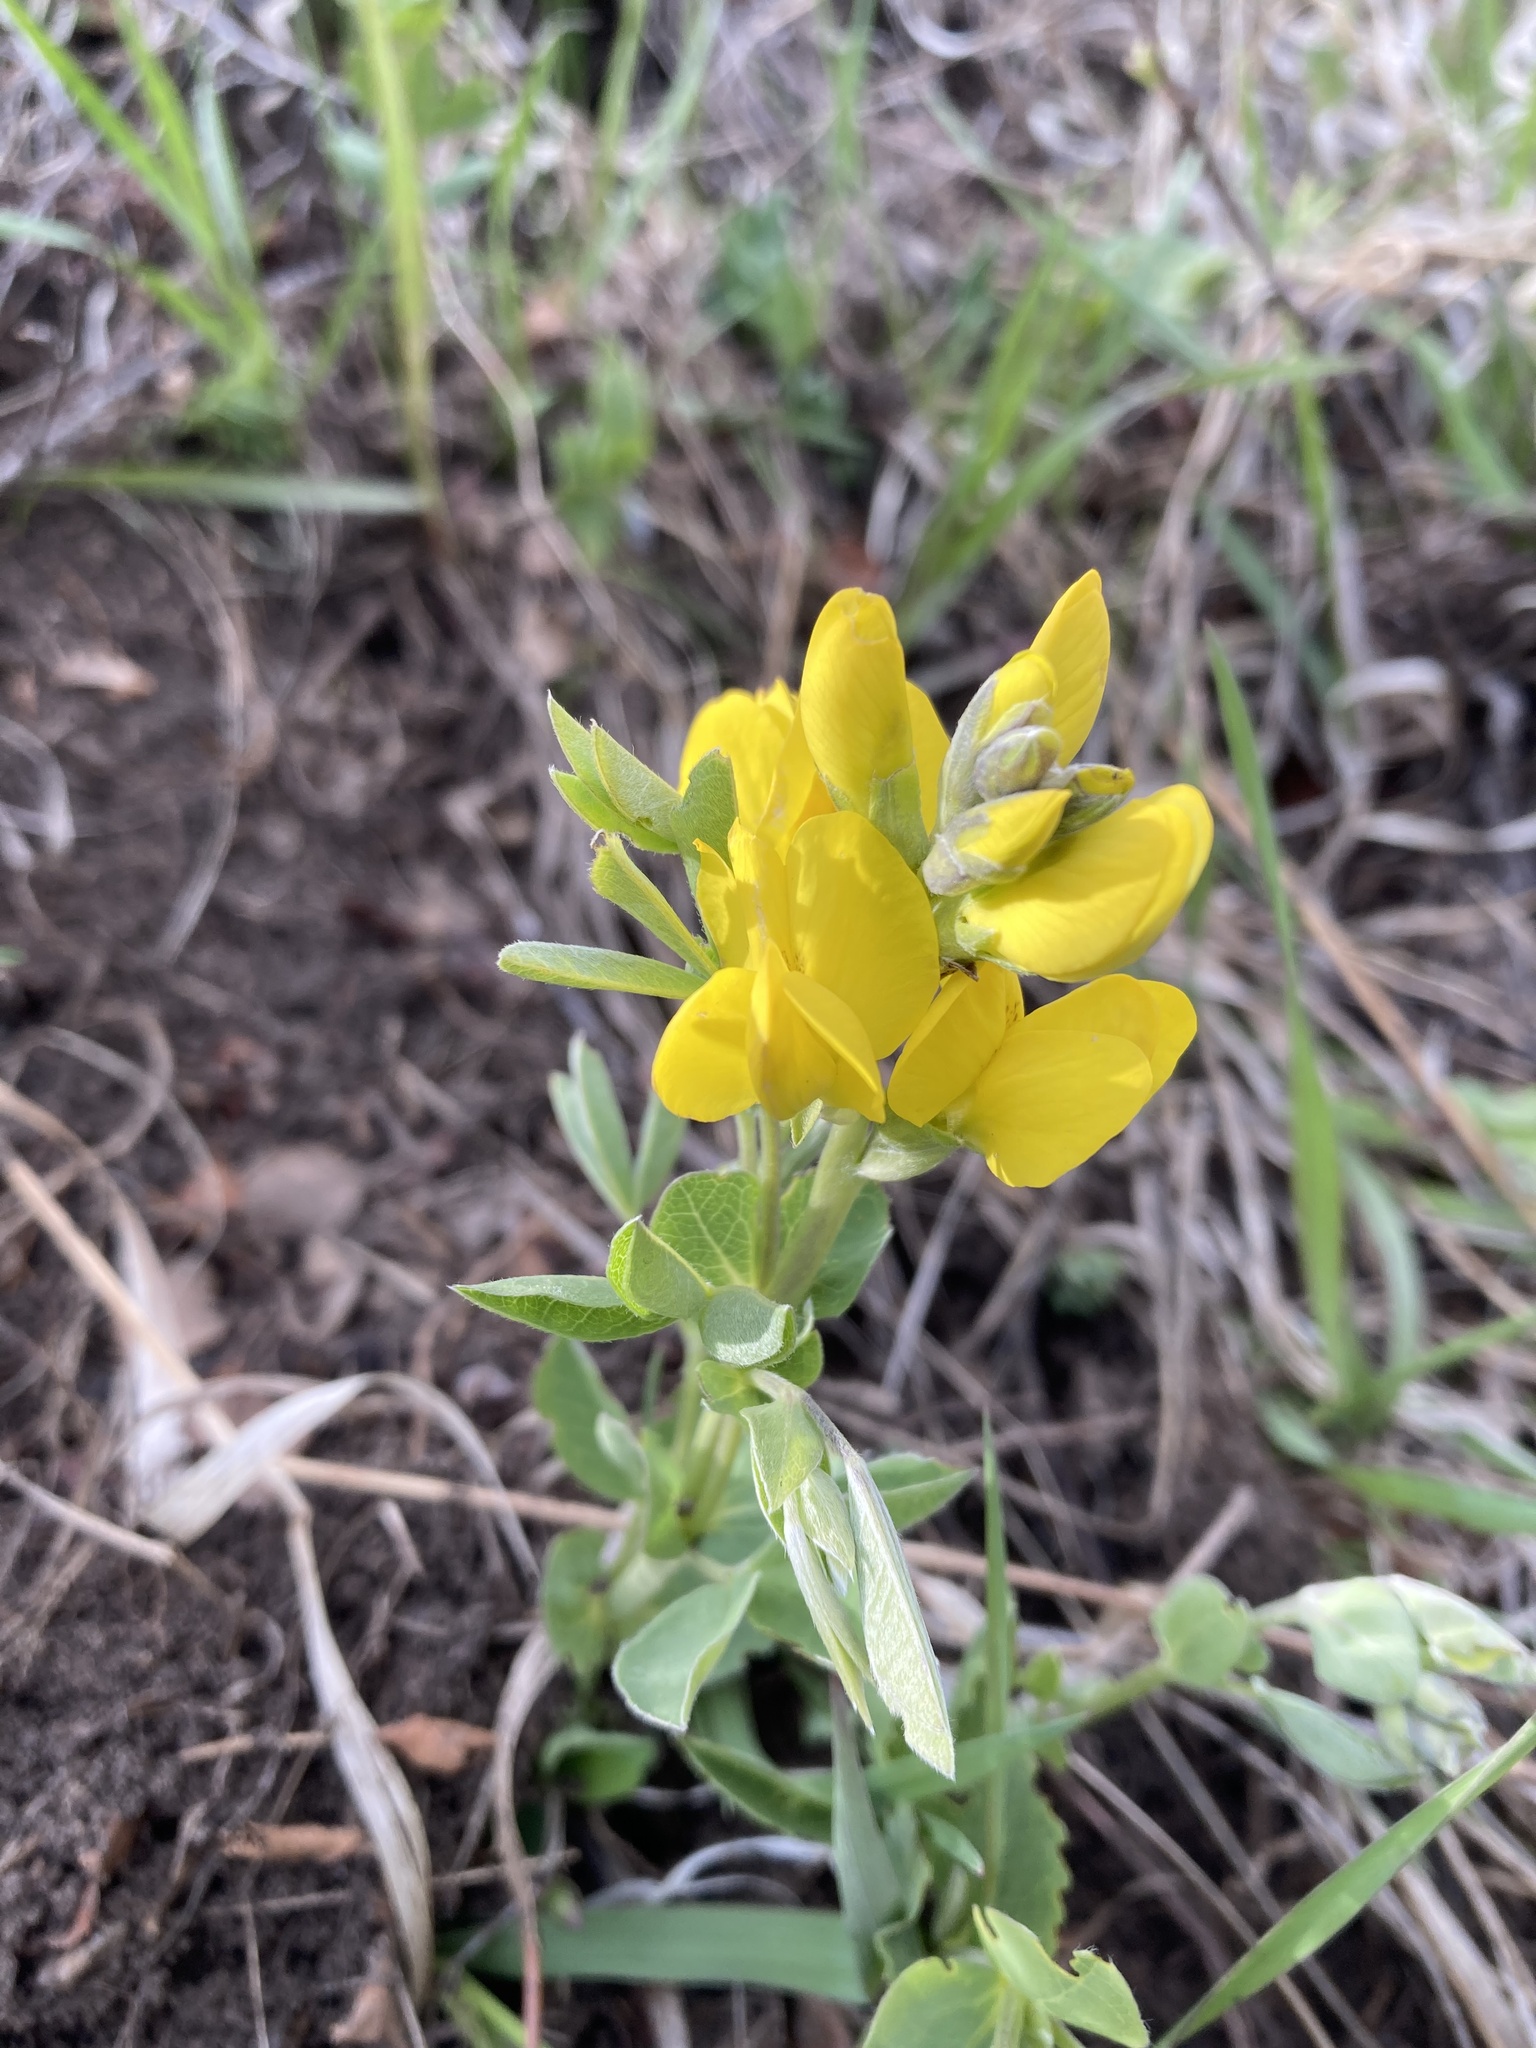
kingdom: Plantae
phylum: Tracheophyta
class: Magnoliopsida
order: Fabales
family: Fabaceae
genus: Thermopsis
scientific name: Thermopsis rhombifolia
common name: Circle-pod-pea
